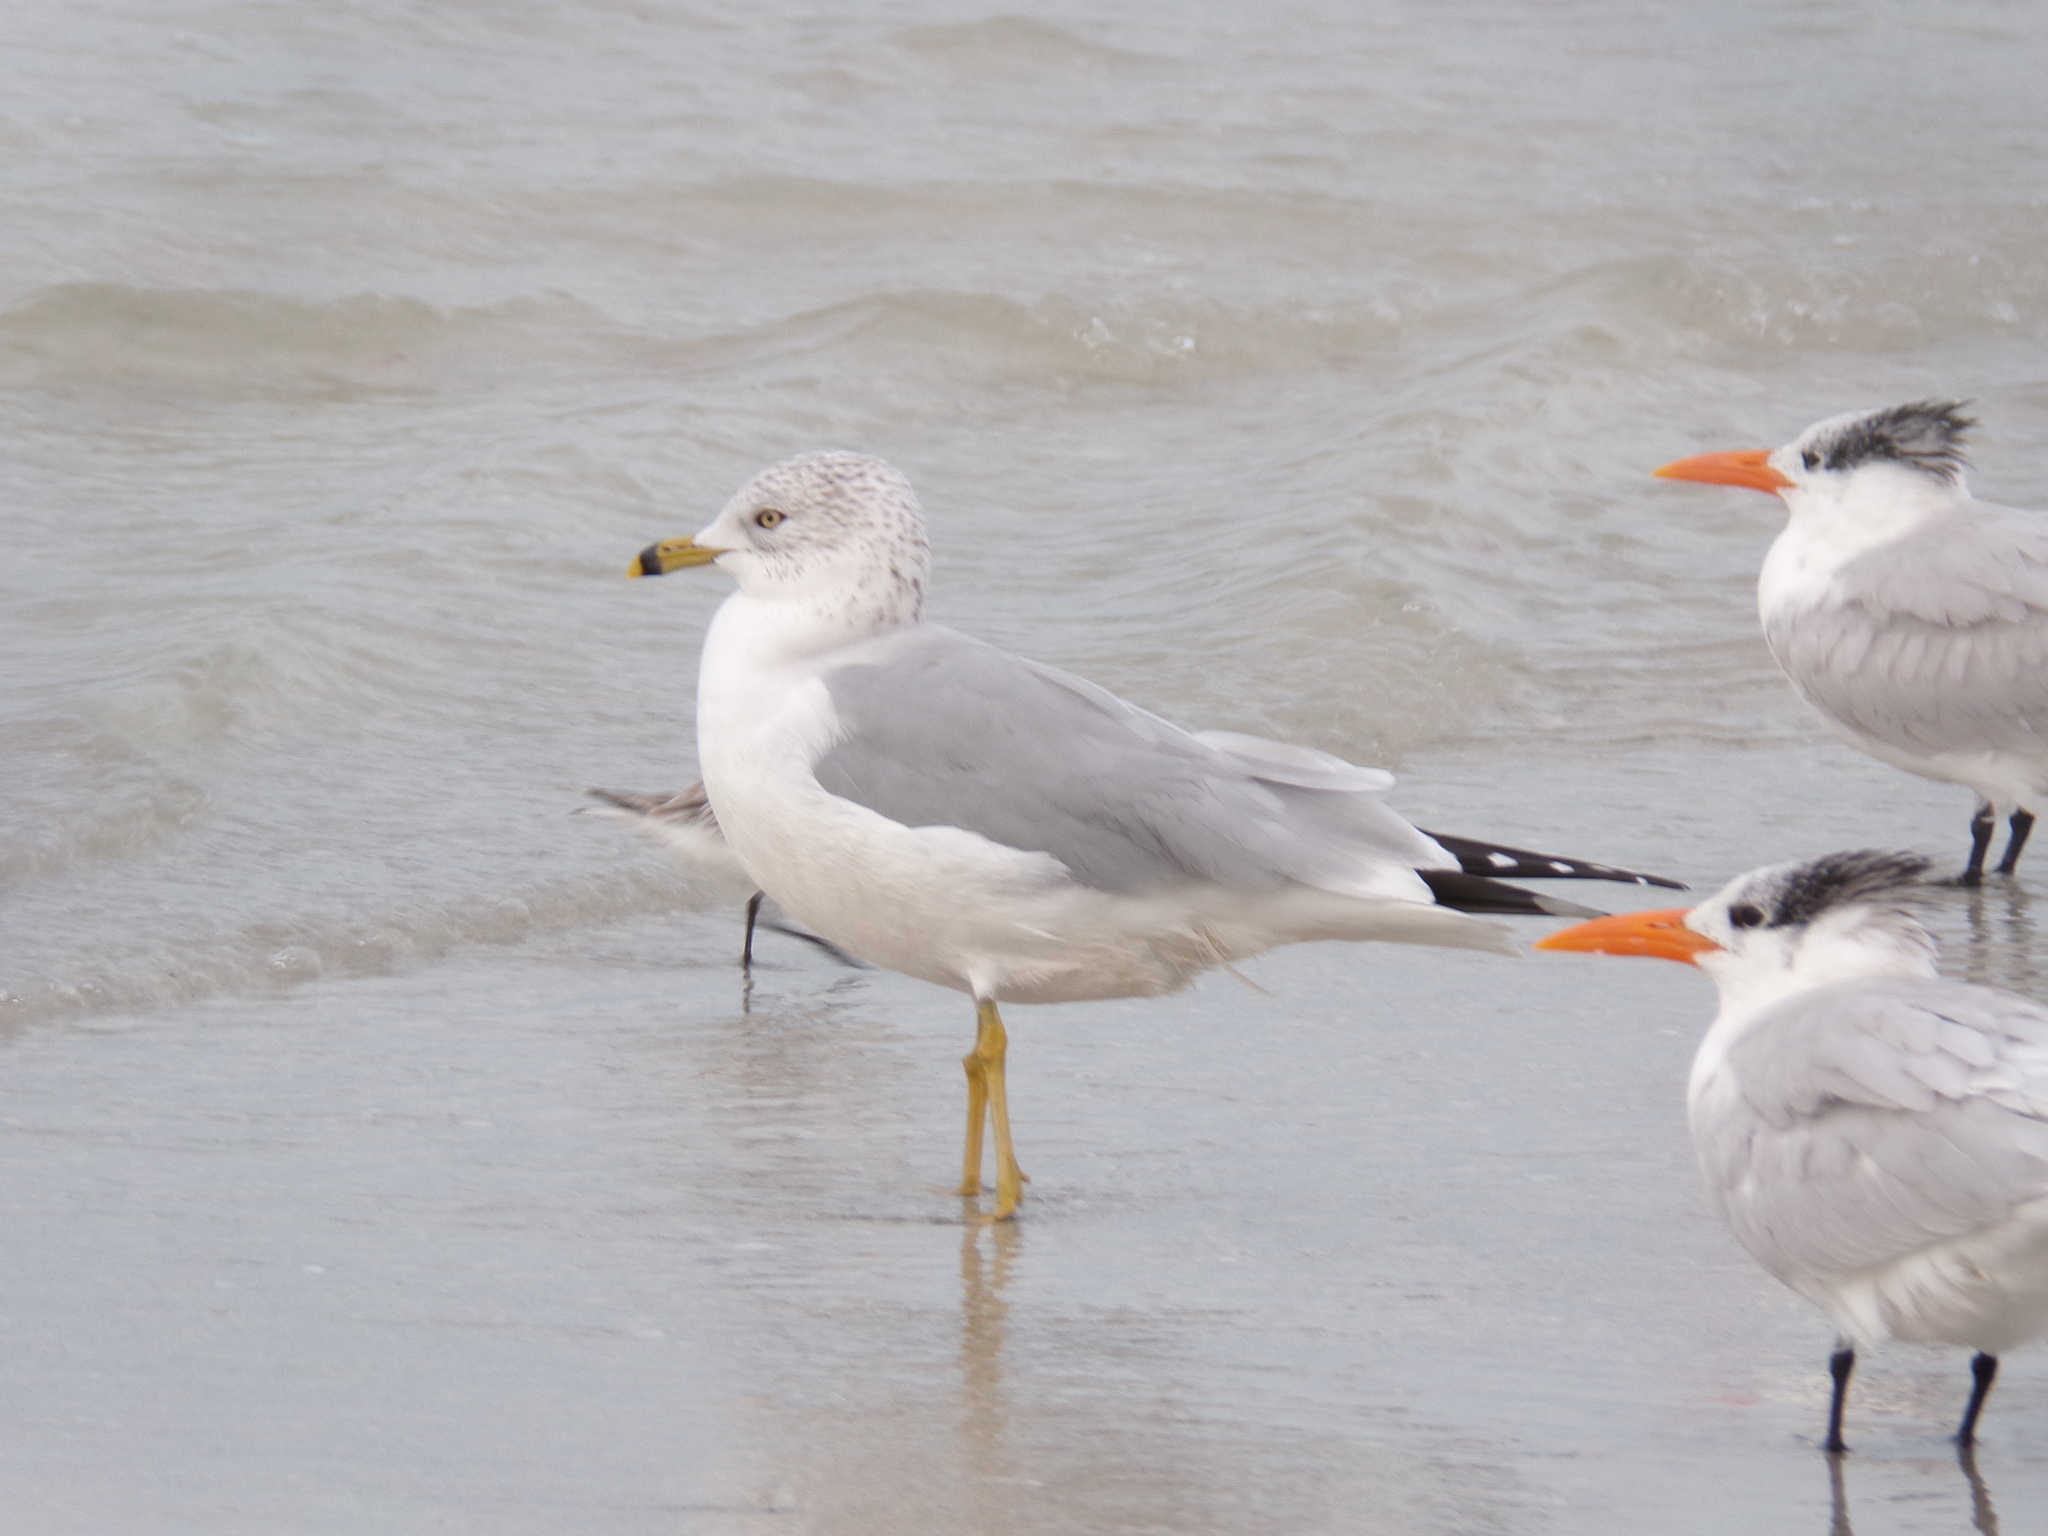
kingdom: Animalia
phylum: Chordata
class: Aves
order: Charadriiformes
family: Laridae
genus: Thalasseus
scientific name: Thalasseus maximus
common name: Royal tern
